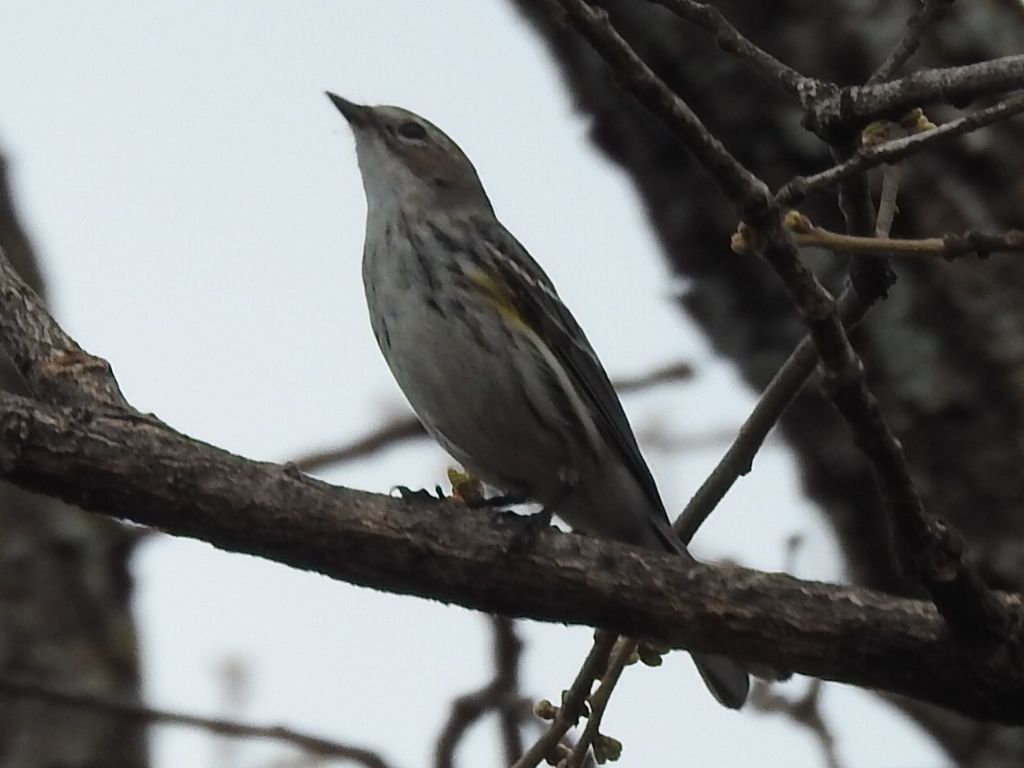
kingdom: Animalia
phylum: Chordata
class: Aves
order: Passeriformes
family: Parulidae
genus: Setophaga
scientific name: Setophaga coronata
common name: Myrtle warbler
